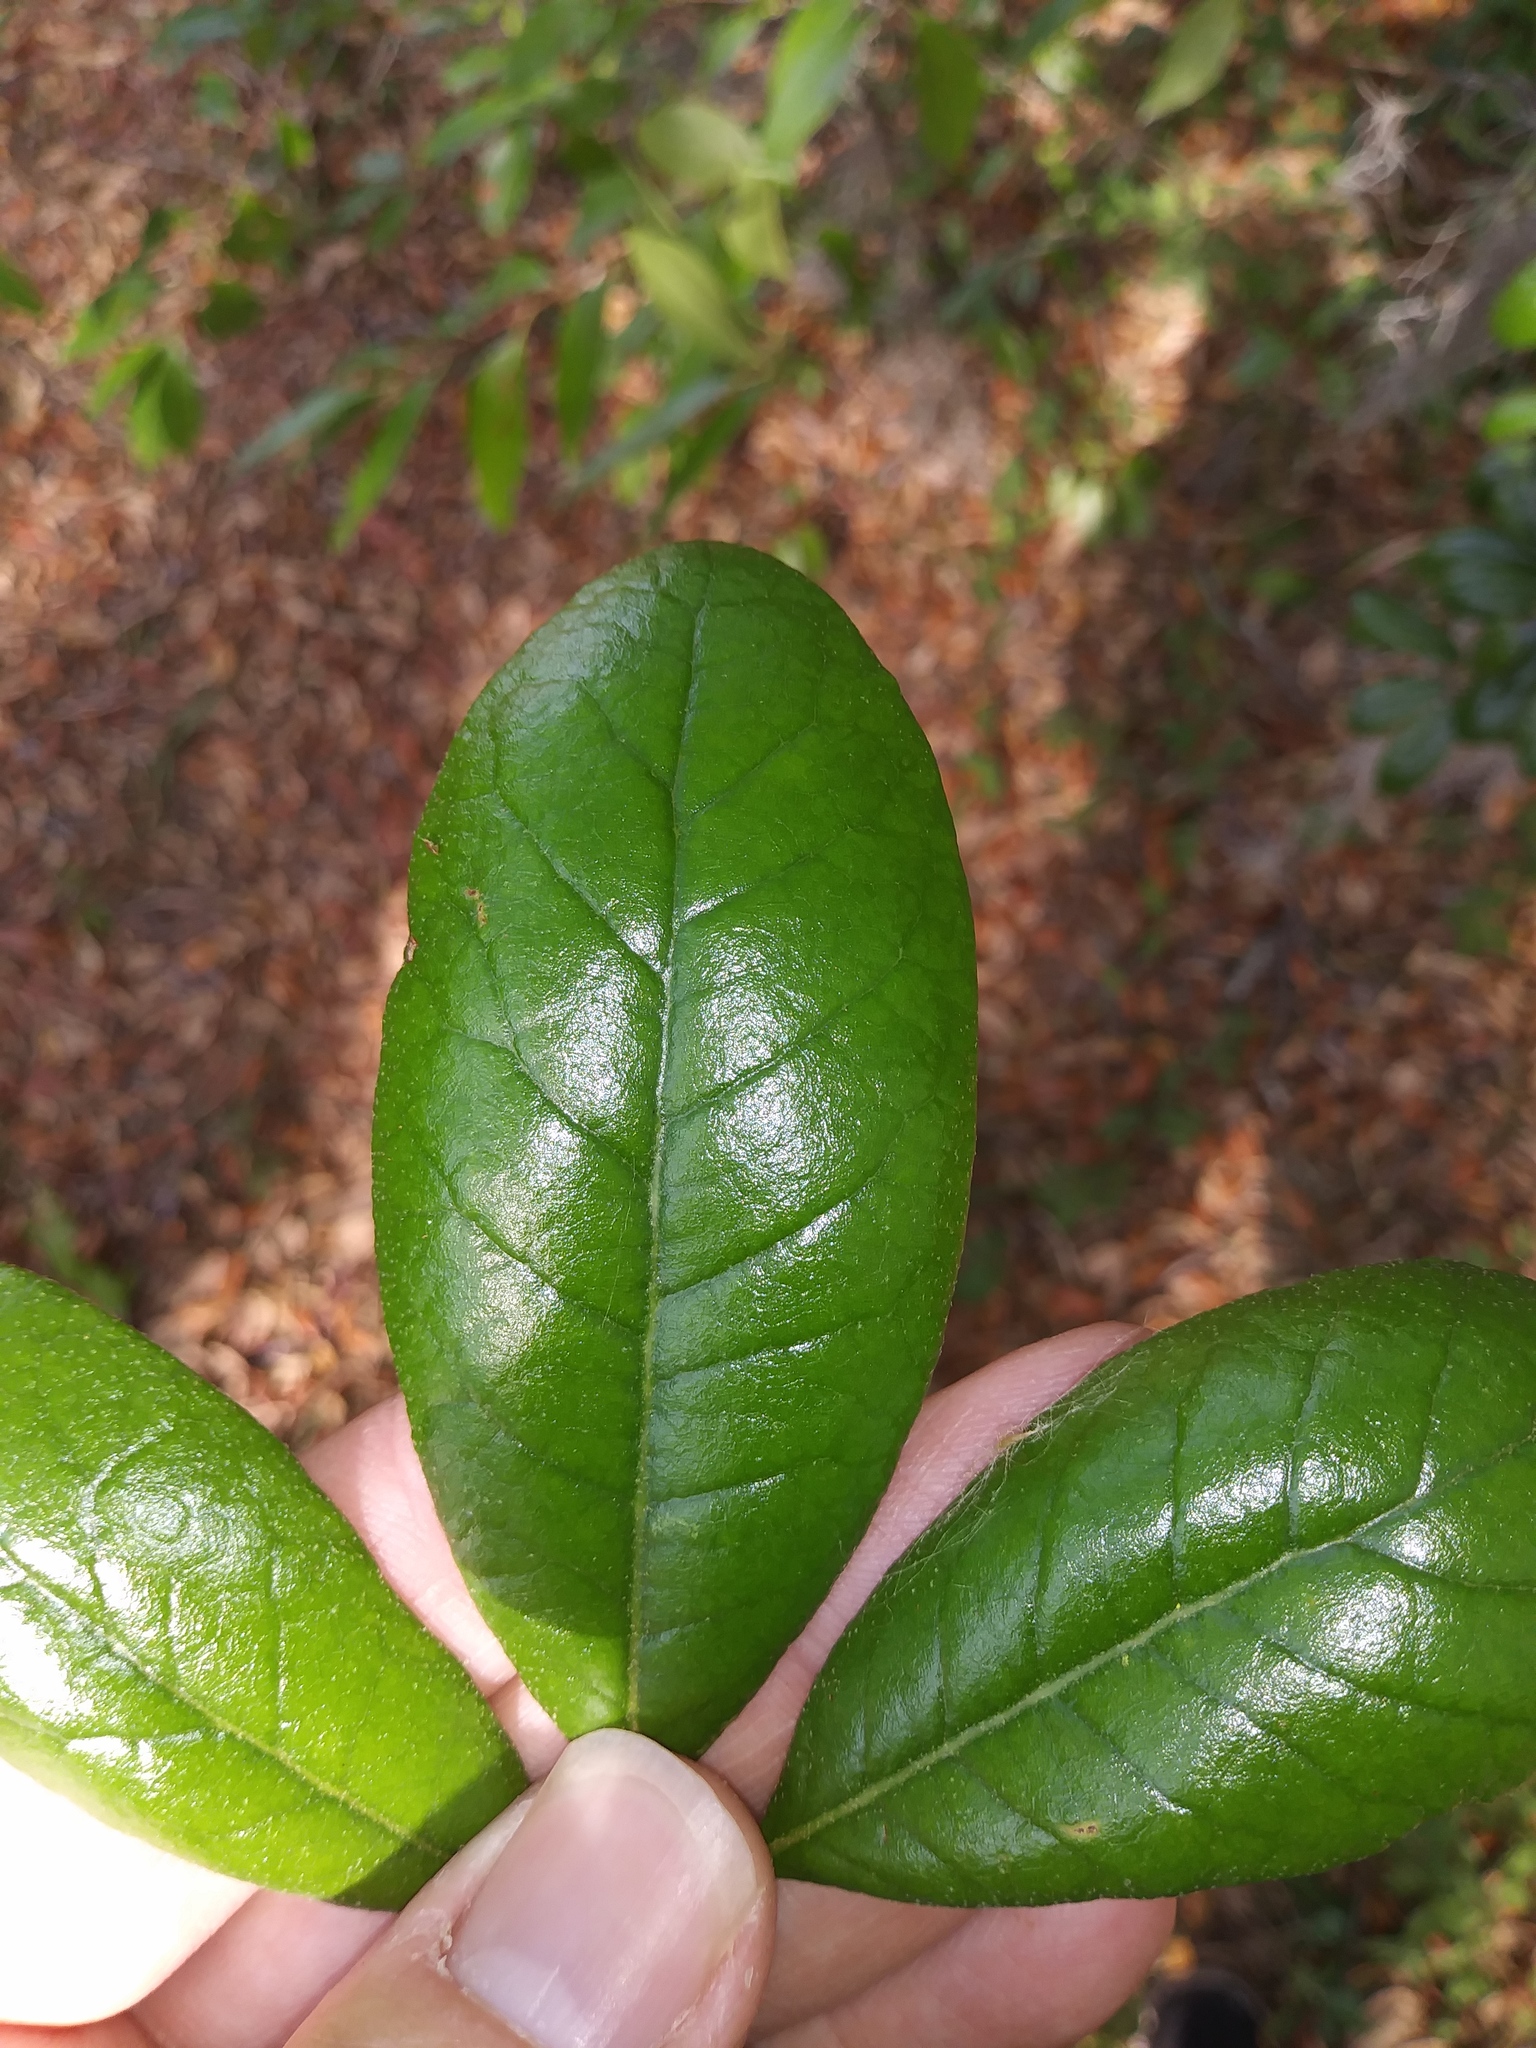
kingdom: Plantae
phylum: Tracheophyta
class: Magnoliopsida
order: Fagales
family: Fagaceae
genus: Quercus
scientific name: Quercus virginiana
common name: Southern live oak
